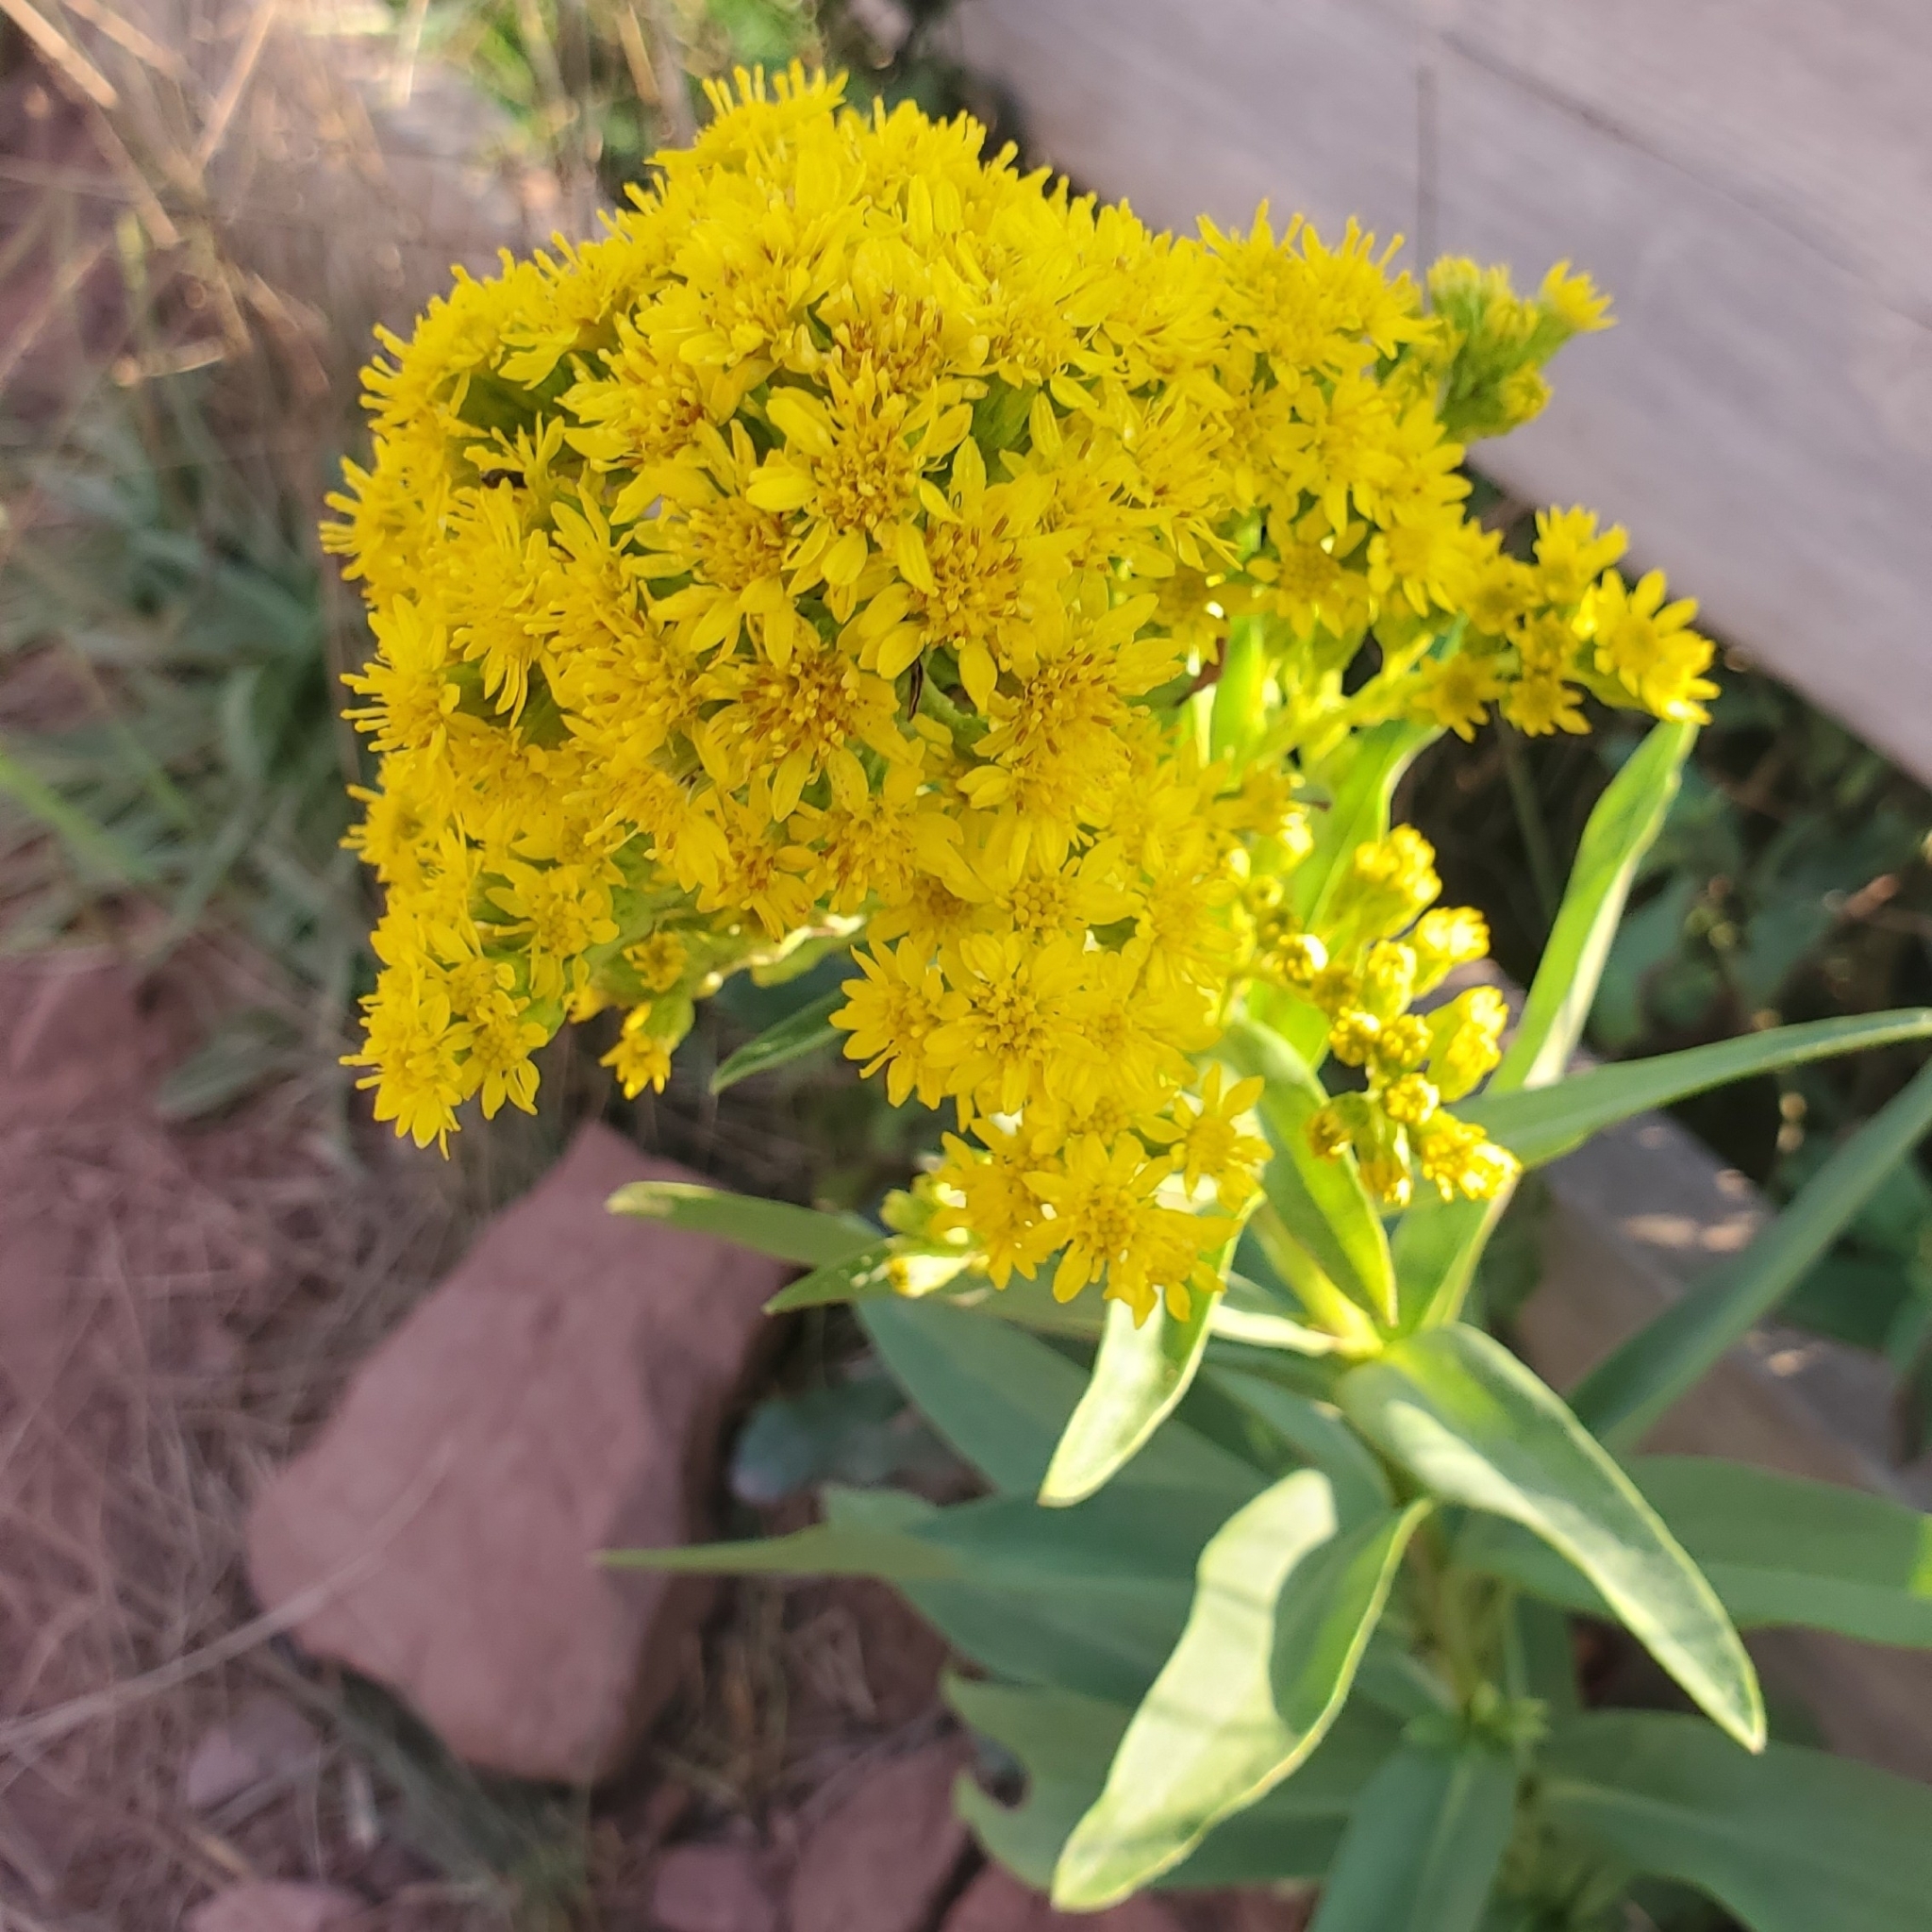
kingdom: Plantae
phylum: Tracheophyta
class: Magnoliopsida
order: Asterales
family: Asteraceae
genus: Solidago
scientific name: Solidago sempervirens
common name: Salt-marsh goldenrod
